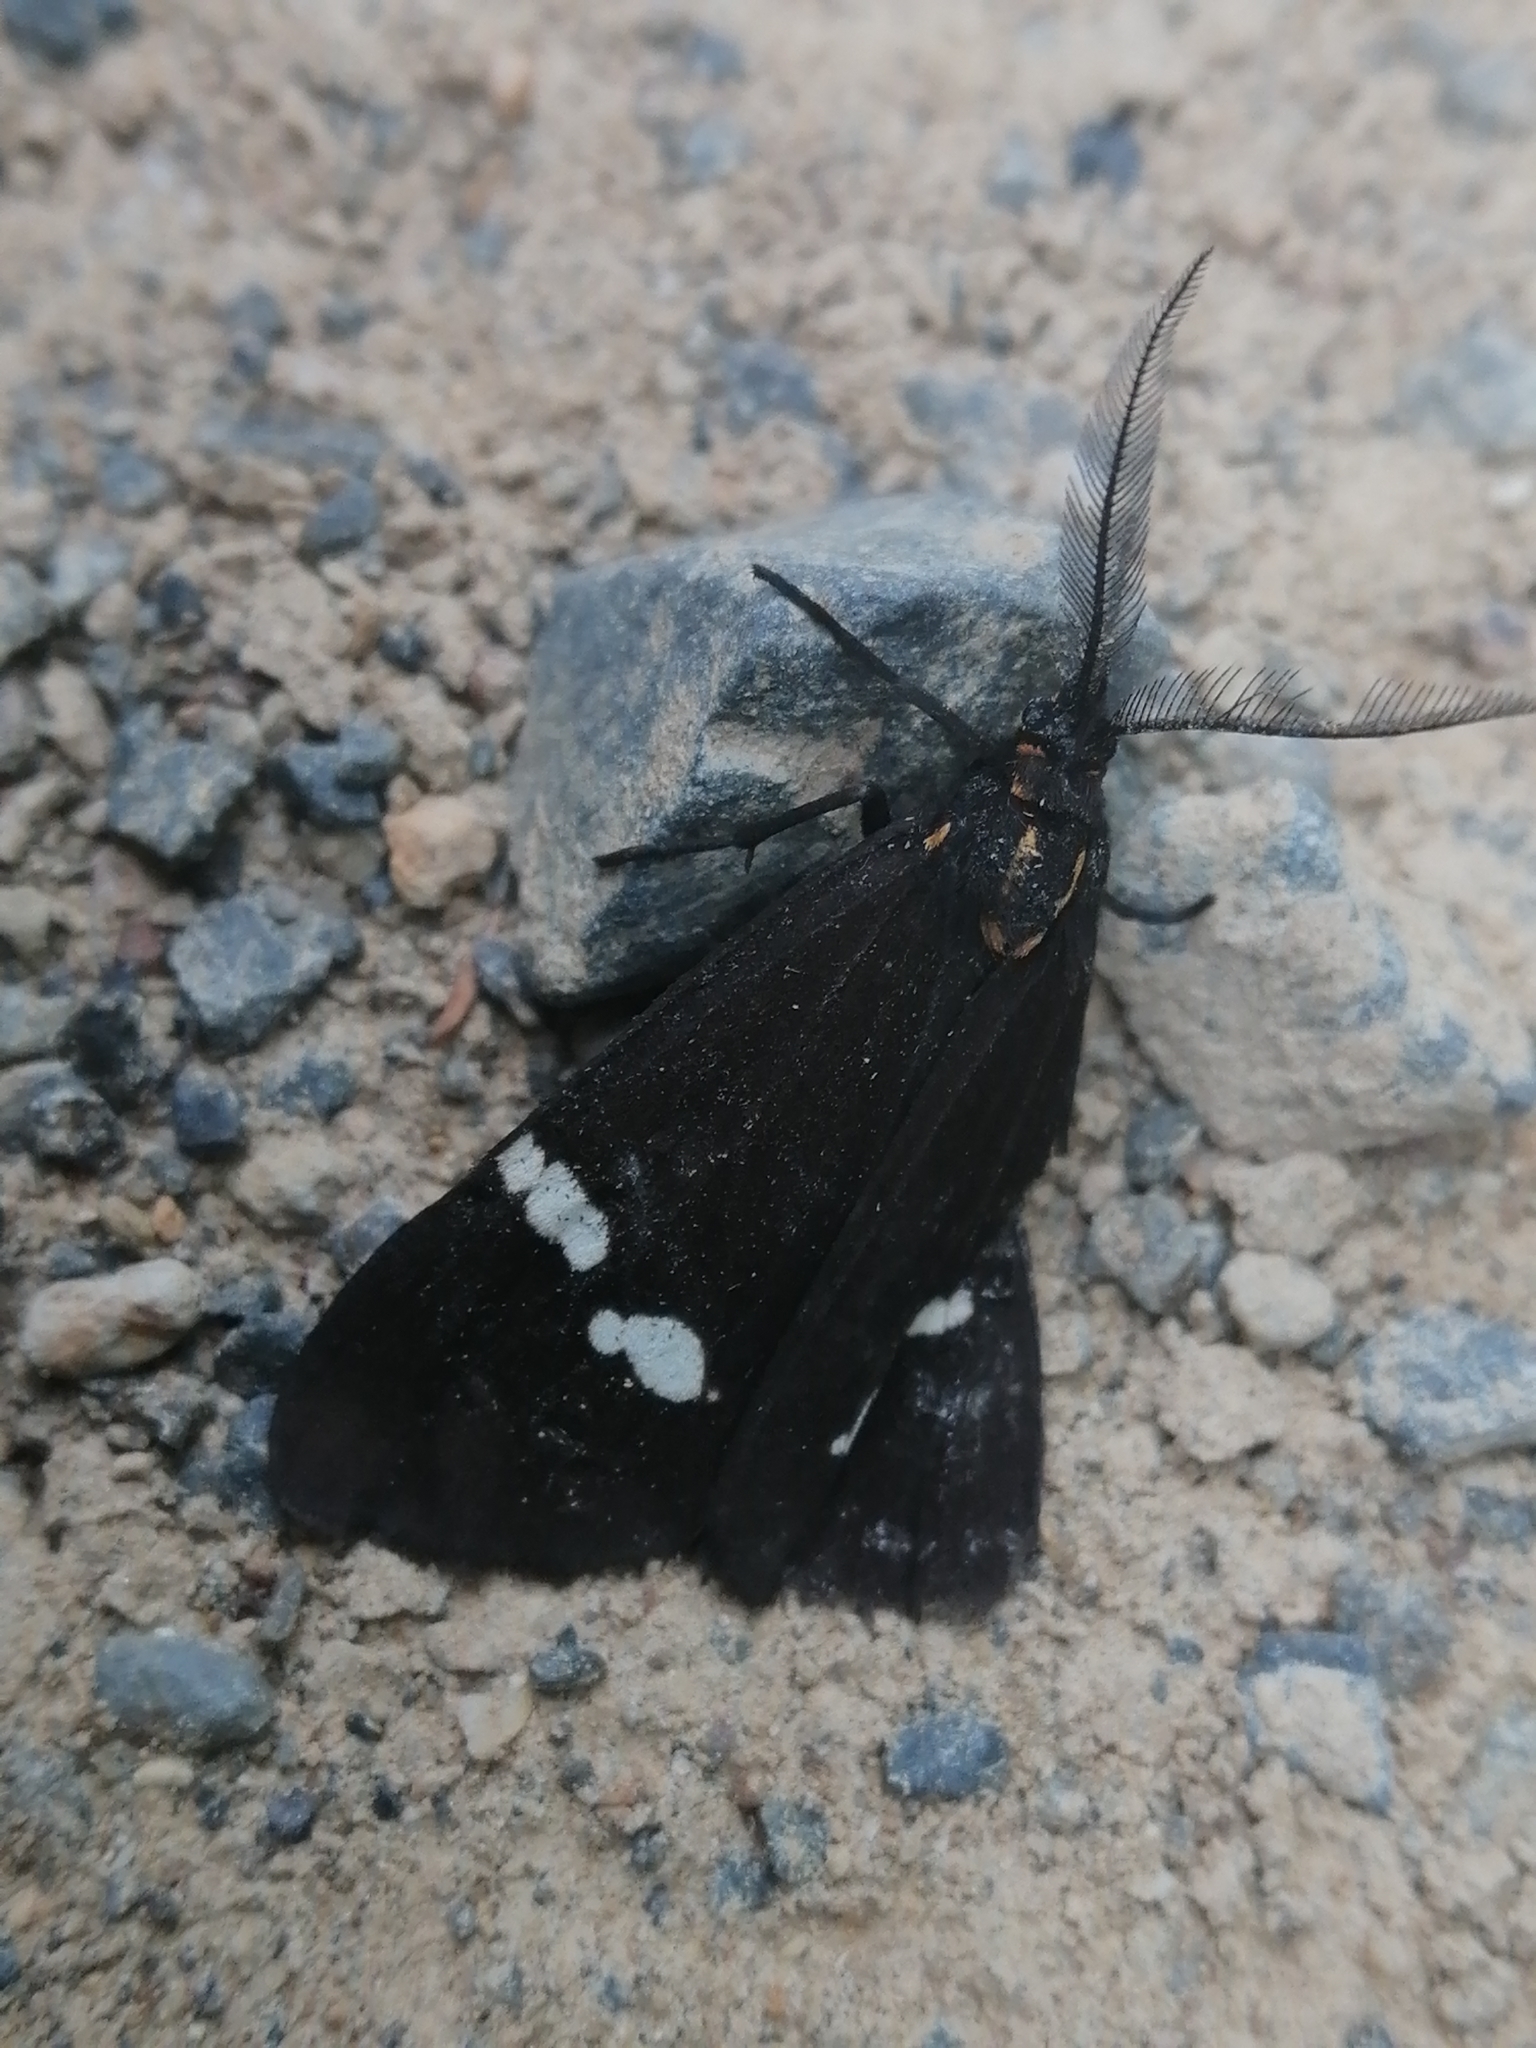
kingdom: Animalia
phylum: Arthropoda
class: Insecta
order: Lepidoptera
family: Erebidae
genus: Nyctemera
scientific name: Nyctemera annulatum
